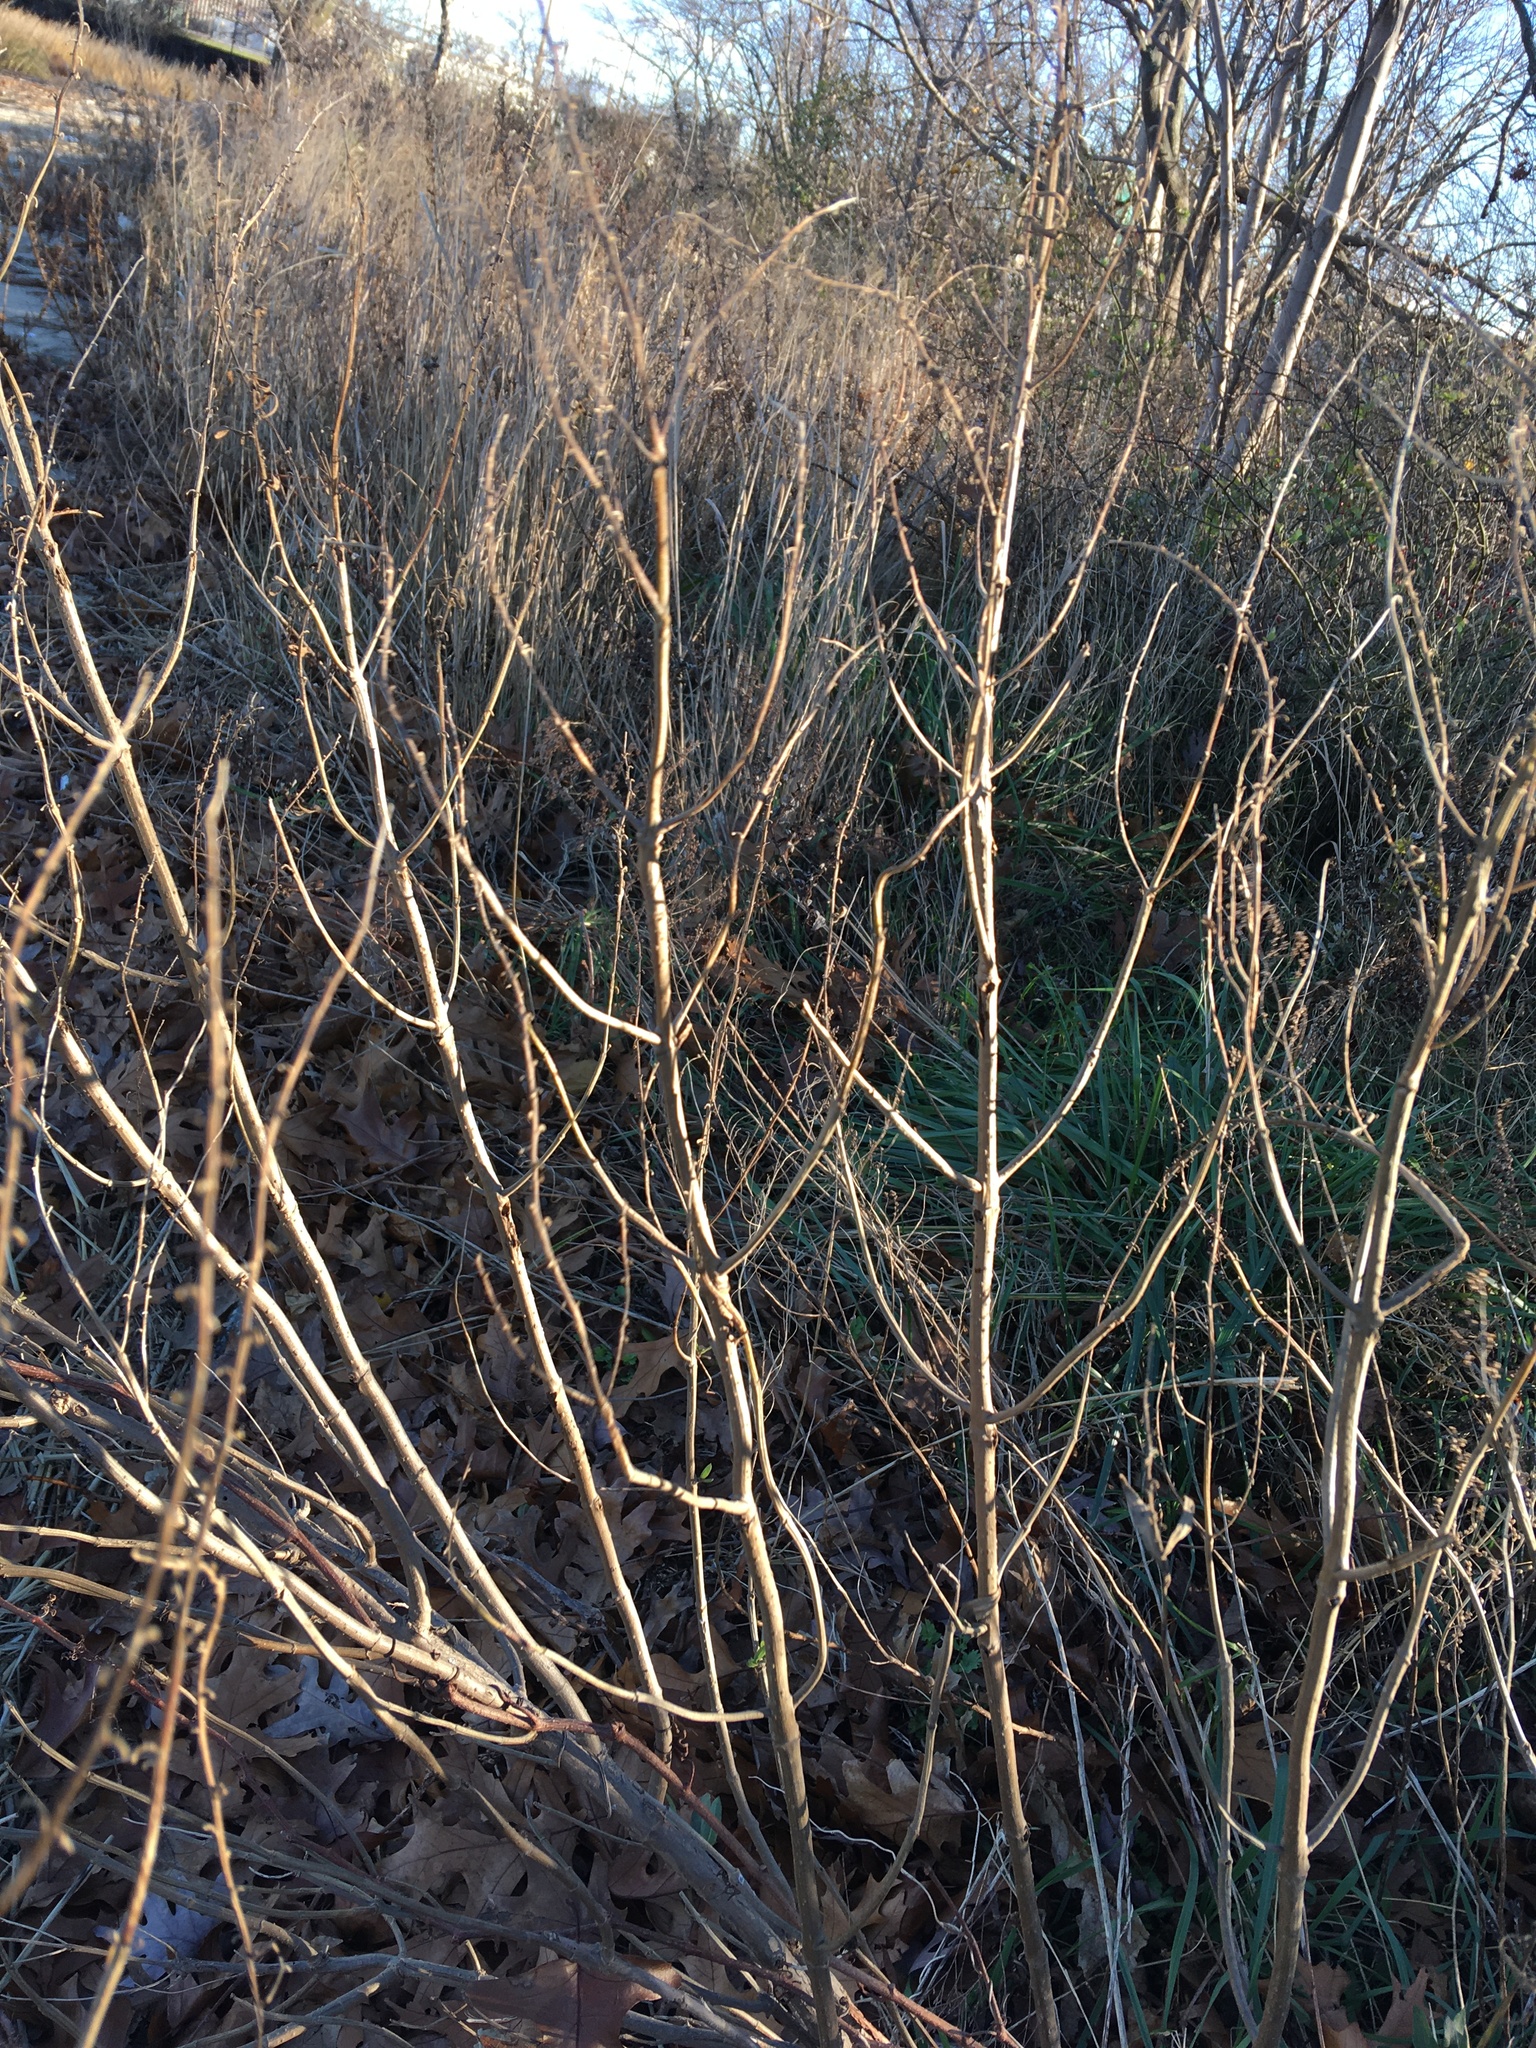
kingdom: Plantae
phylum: Tracheophyta
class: Magnoliopsida
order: Asterales
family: Asteraceae
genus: Iva
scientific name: Iva frutescens
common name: Big-leaved marsh-elder
